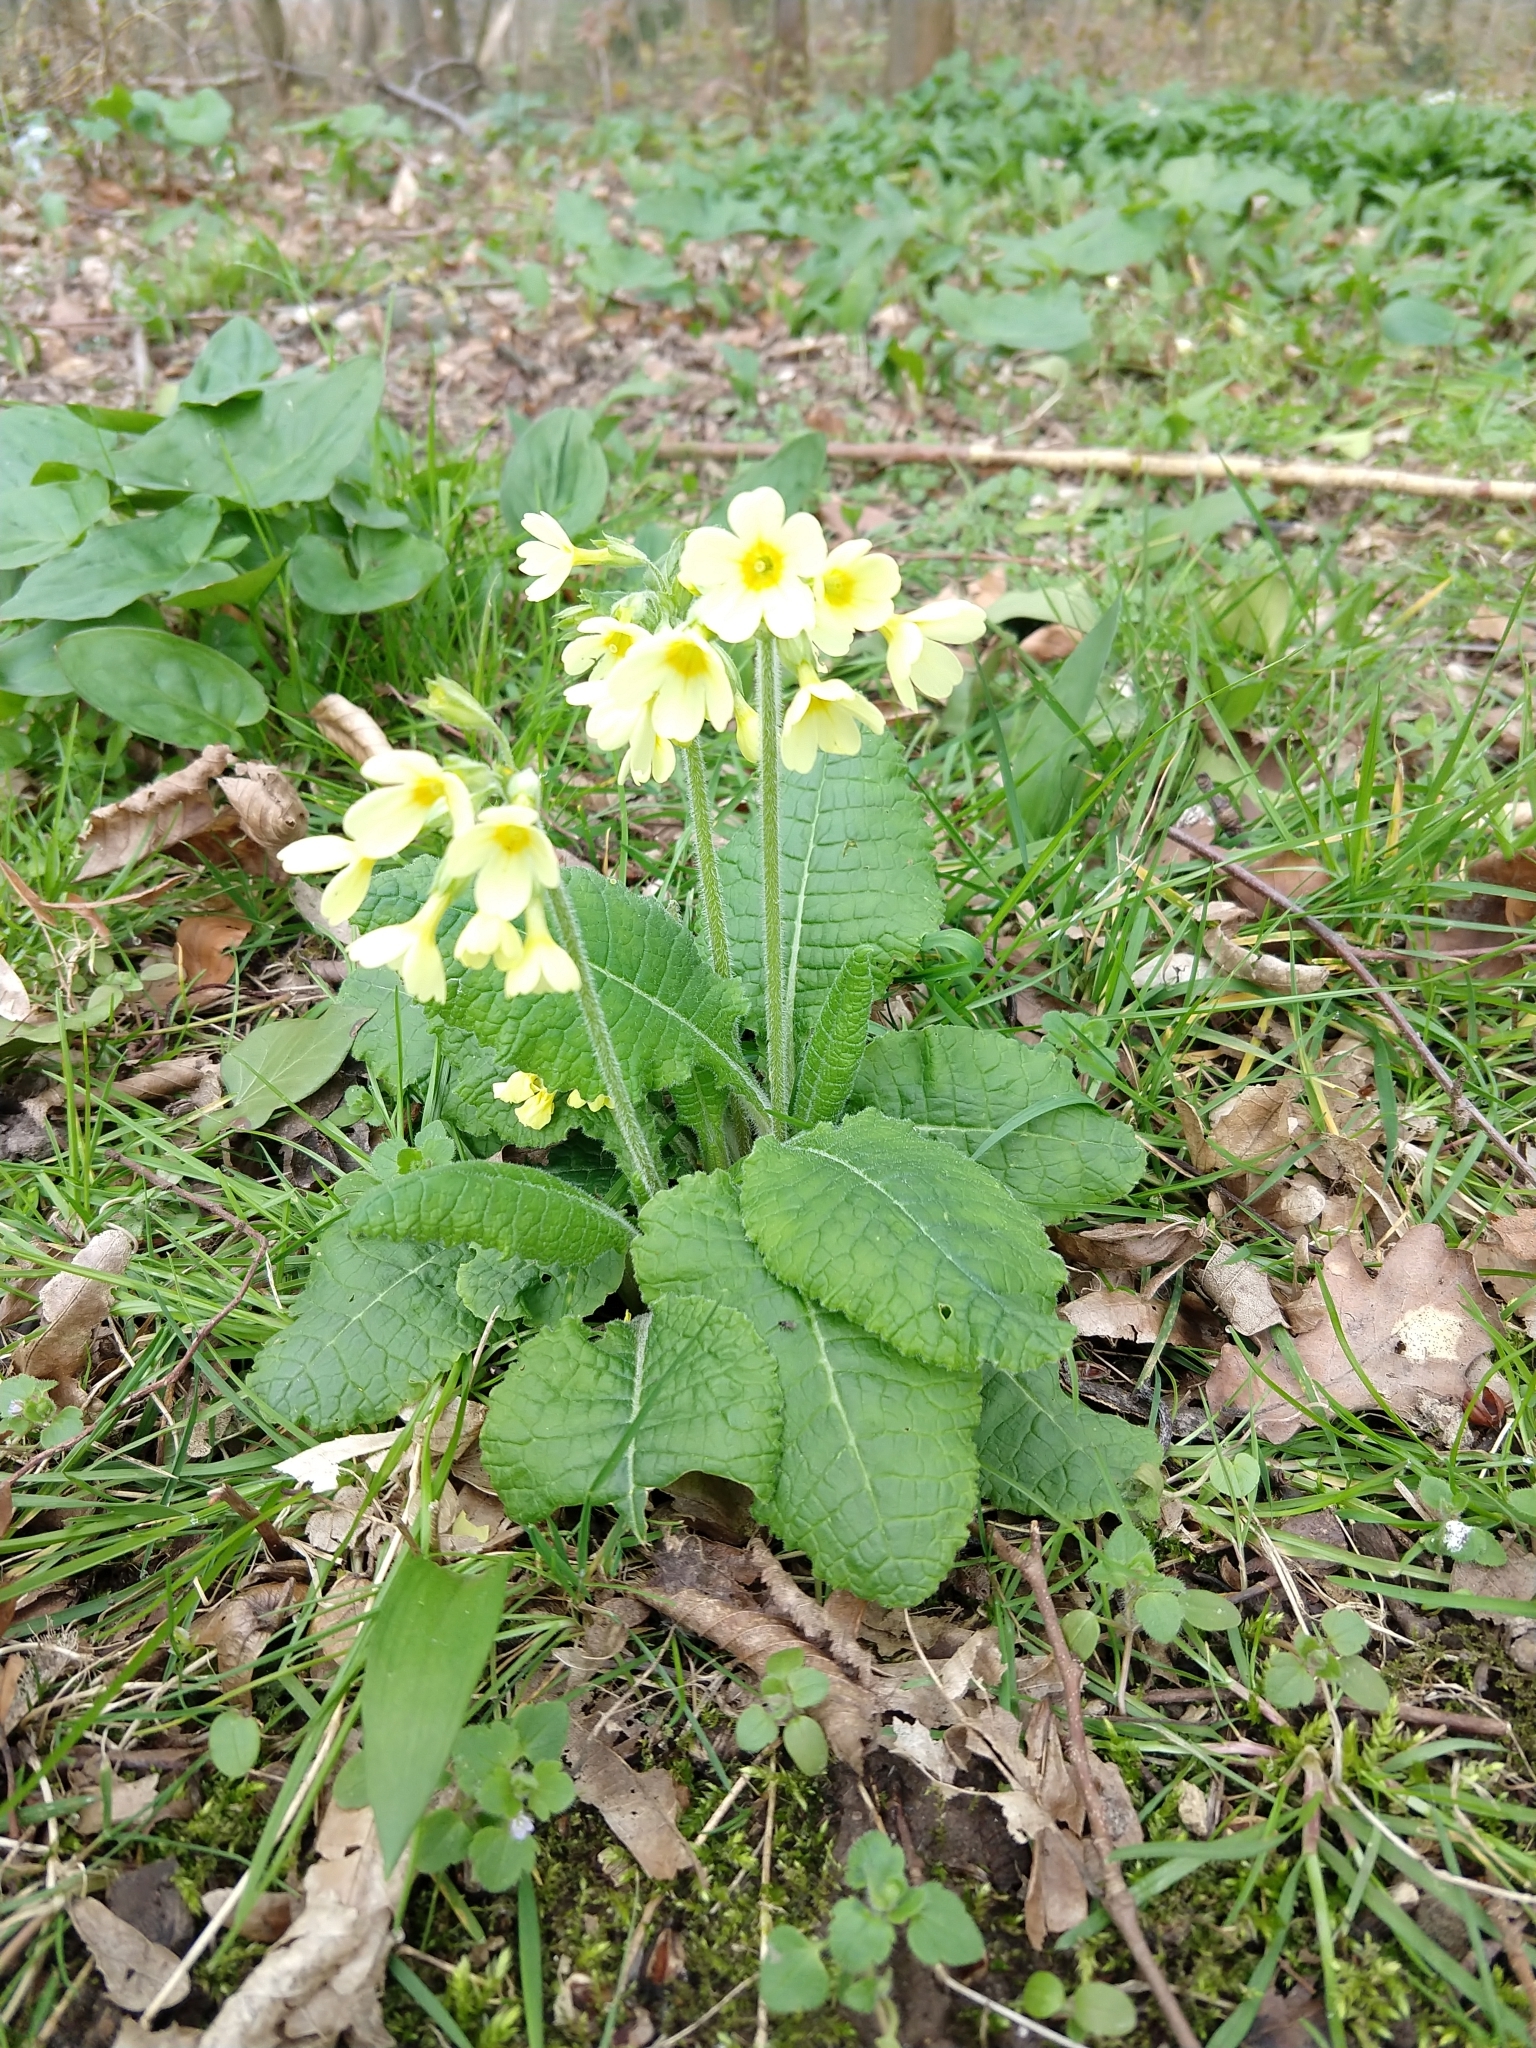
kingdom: Plantae
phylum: Tracheophyta
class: Magnoliopsida
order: Ericales
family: Primulaceae
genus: Primula
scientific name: Primula elatior
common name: Oxlip
